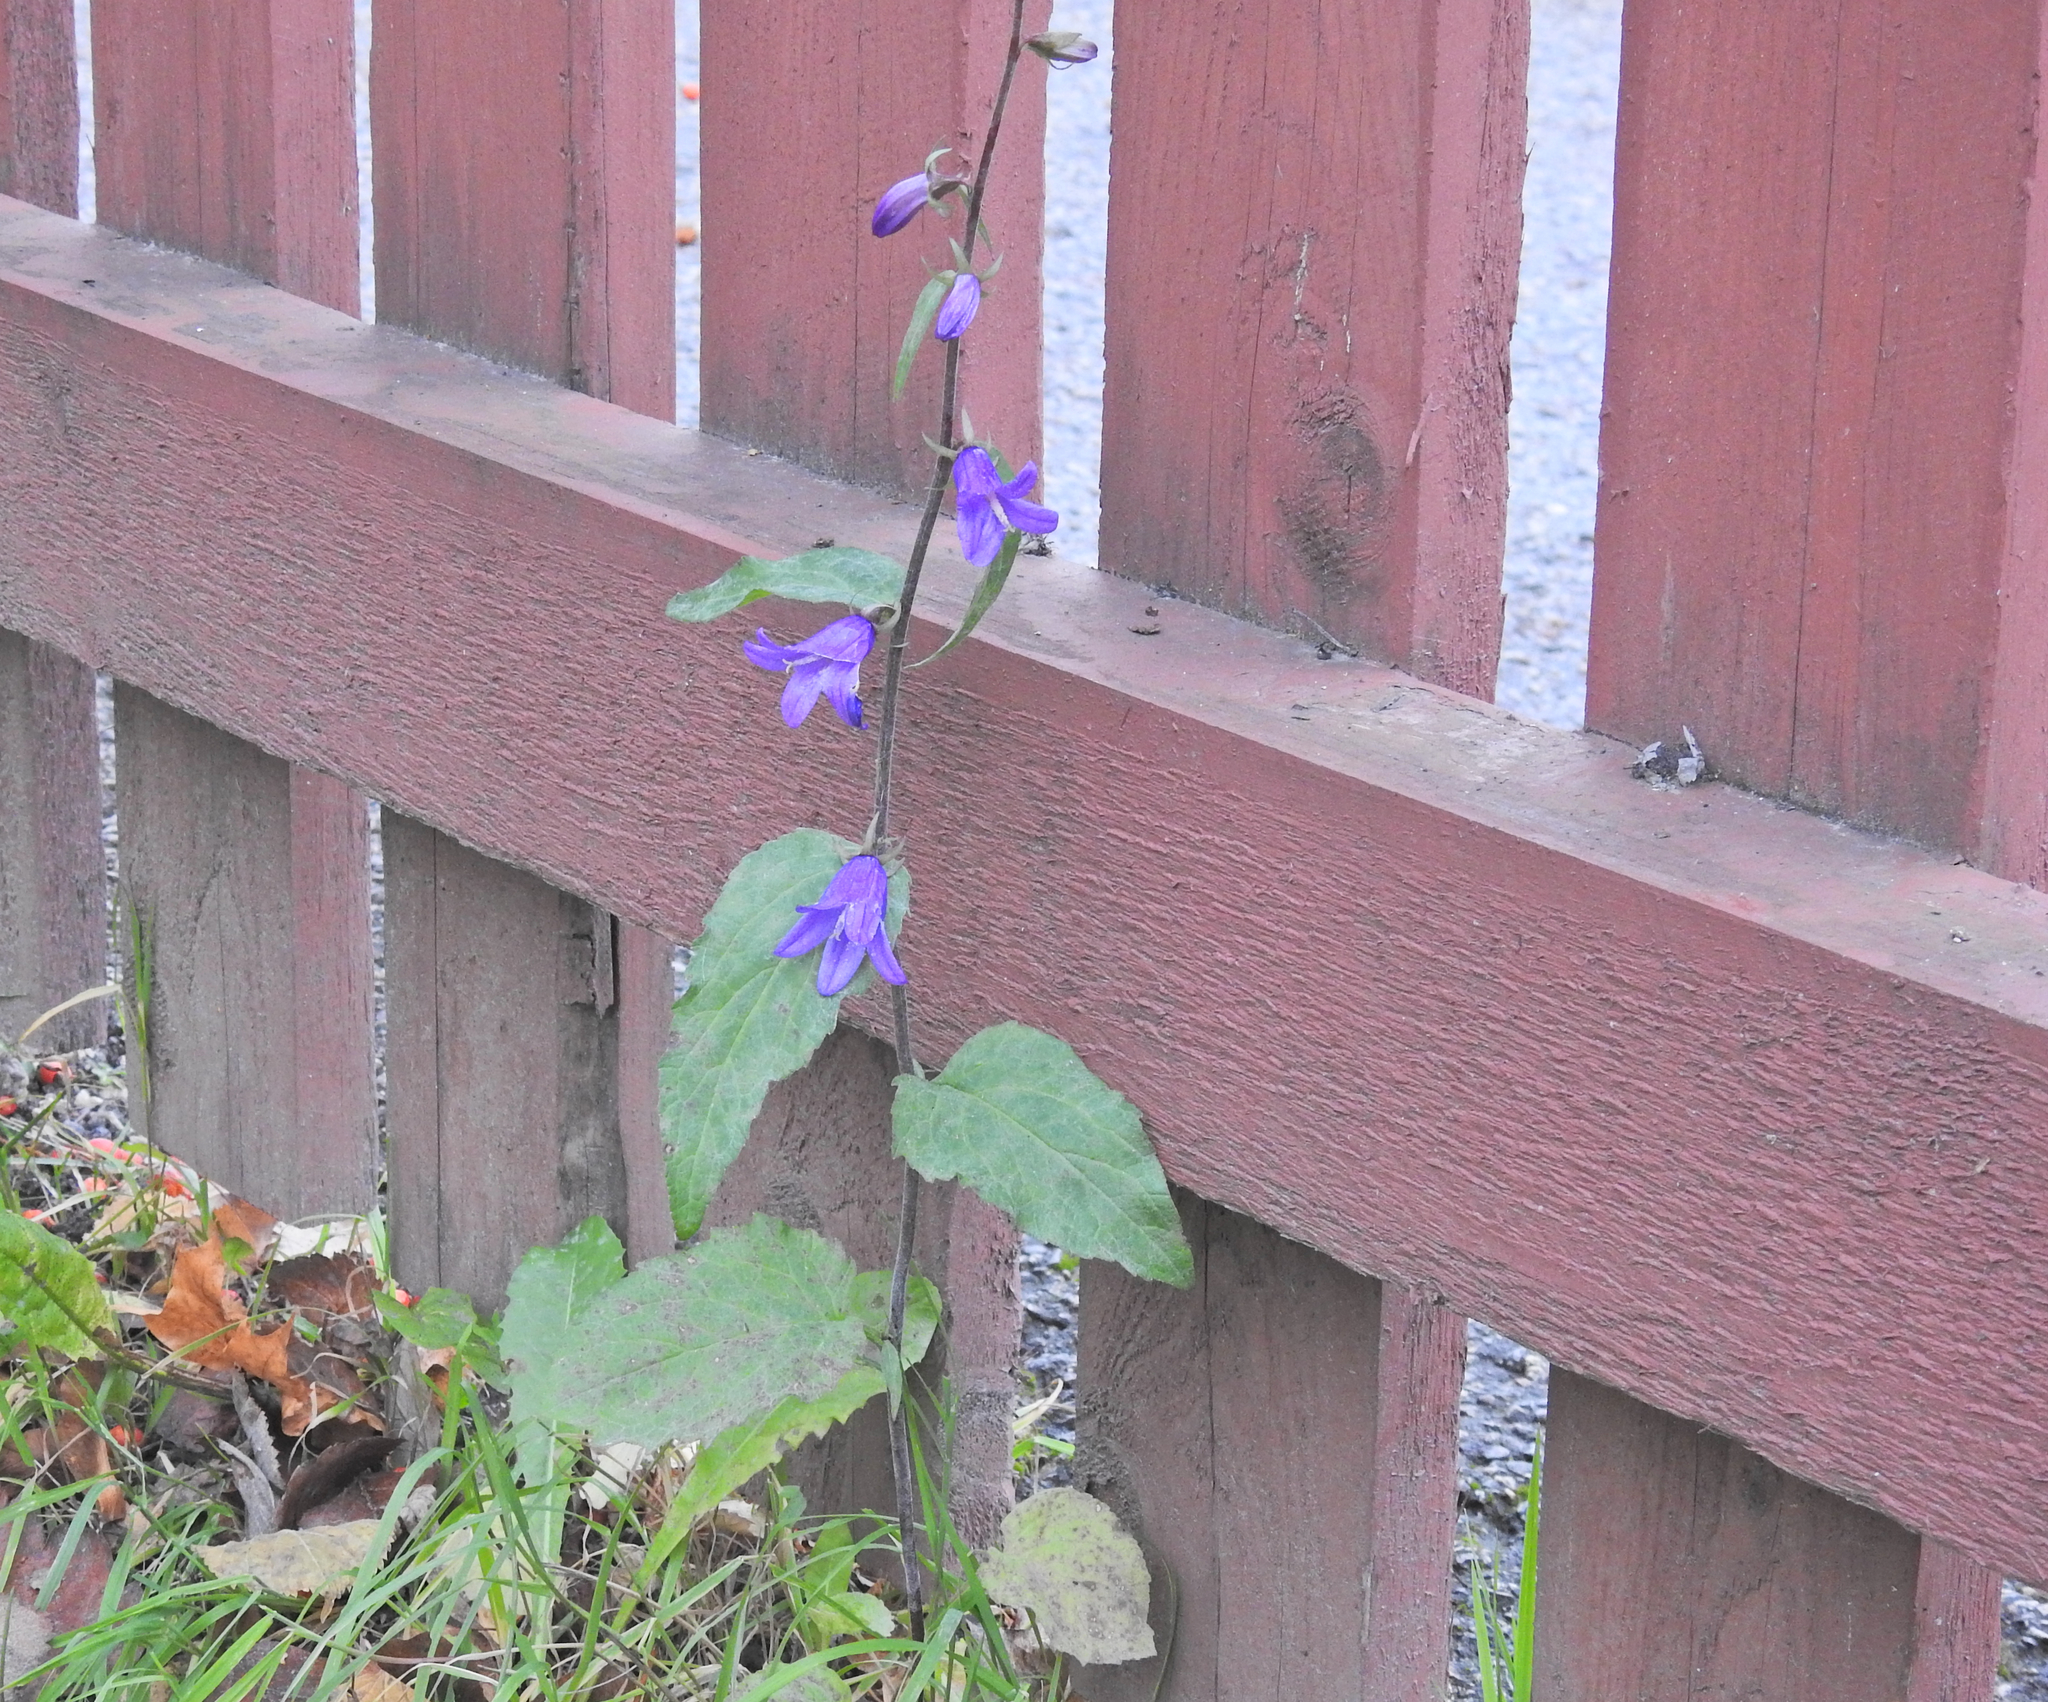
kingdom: Plantae
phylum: Tracheophyta
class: Magnoliopsida
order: Asterales
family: Campanulaceae
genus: Campanula
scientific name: Campanula rapunculoides
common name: Creeping bellflower
